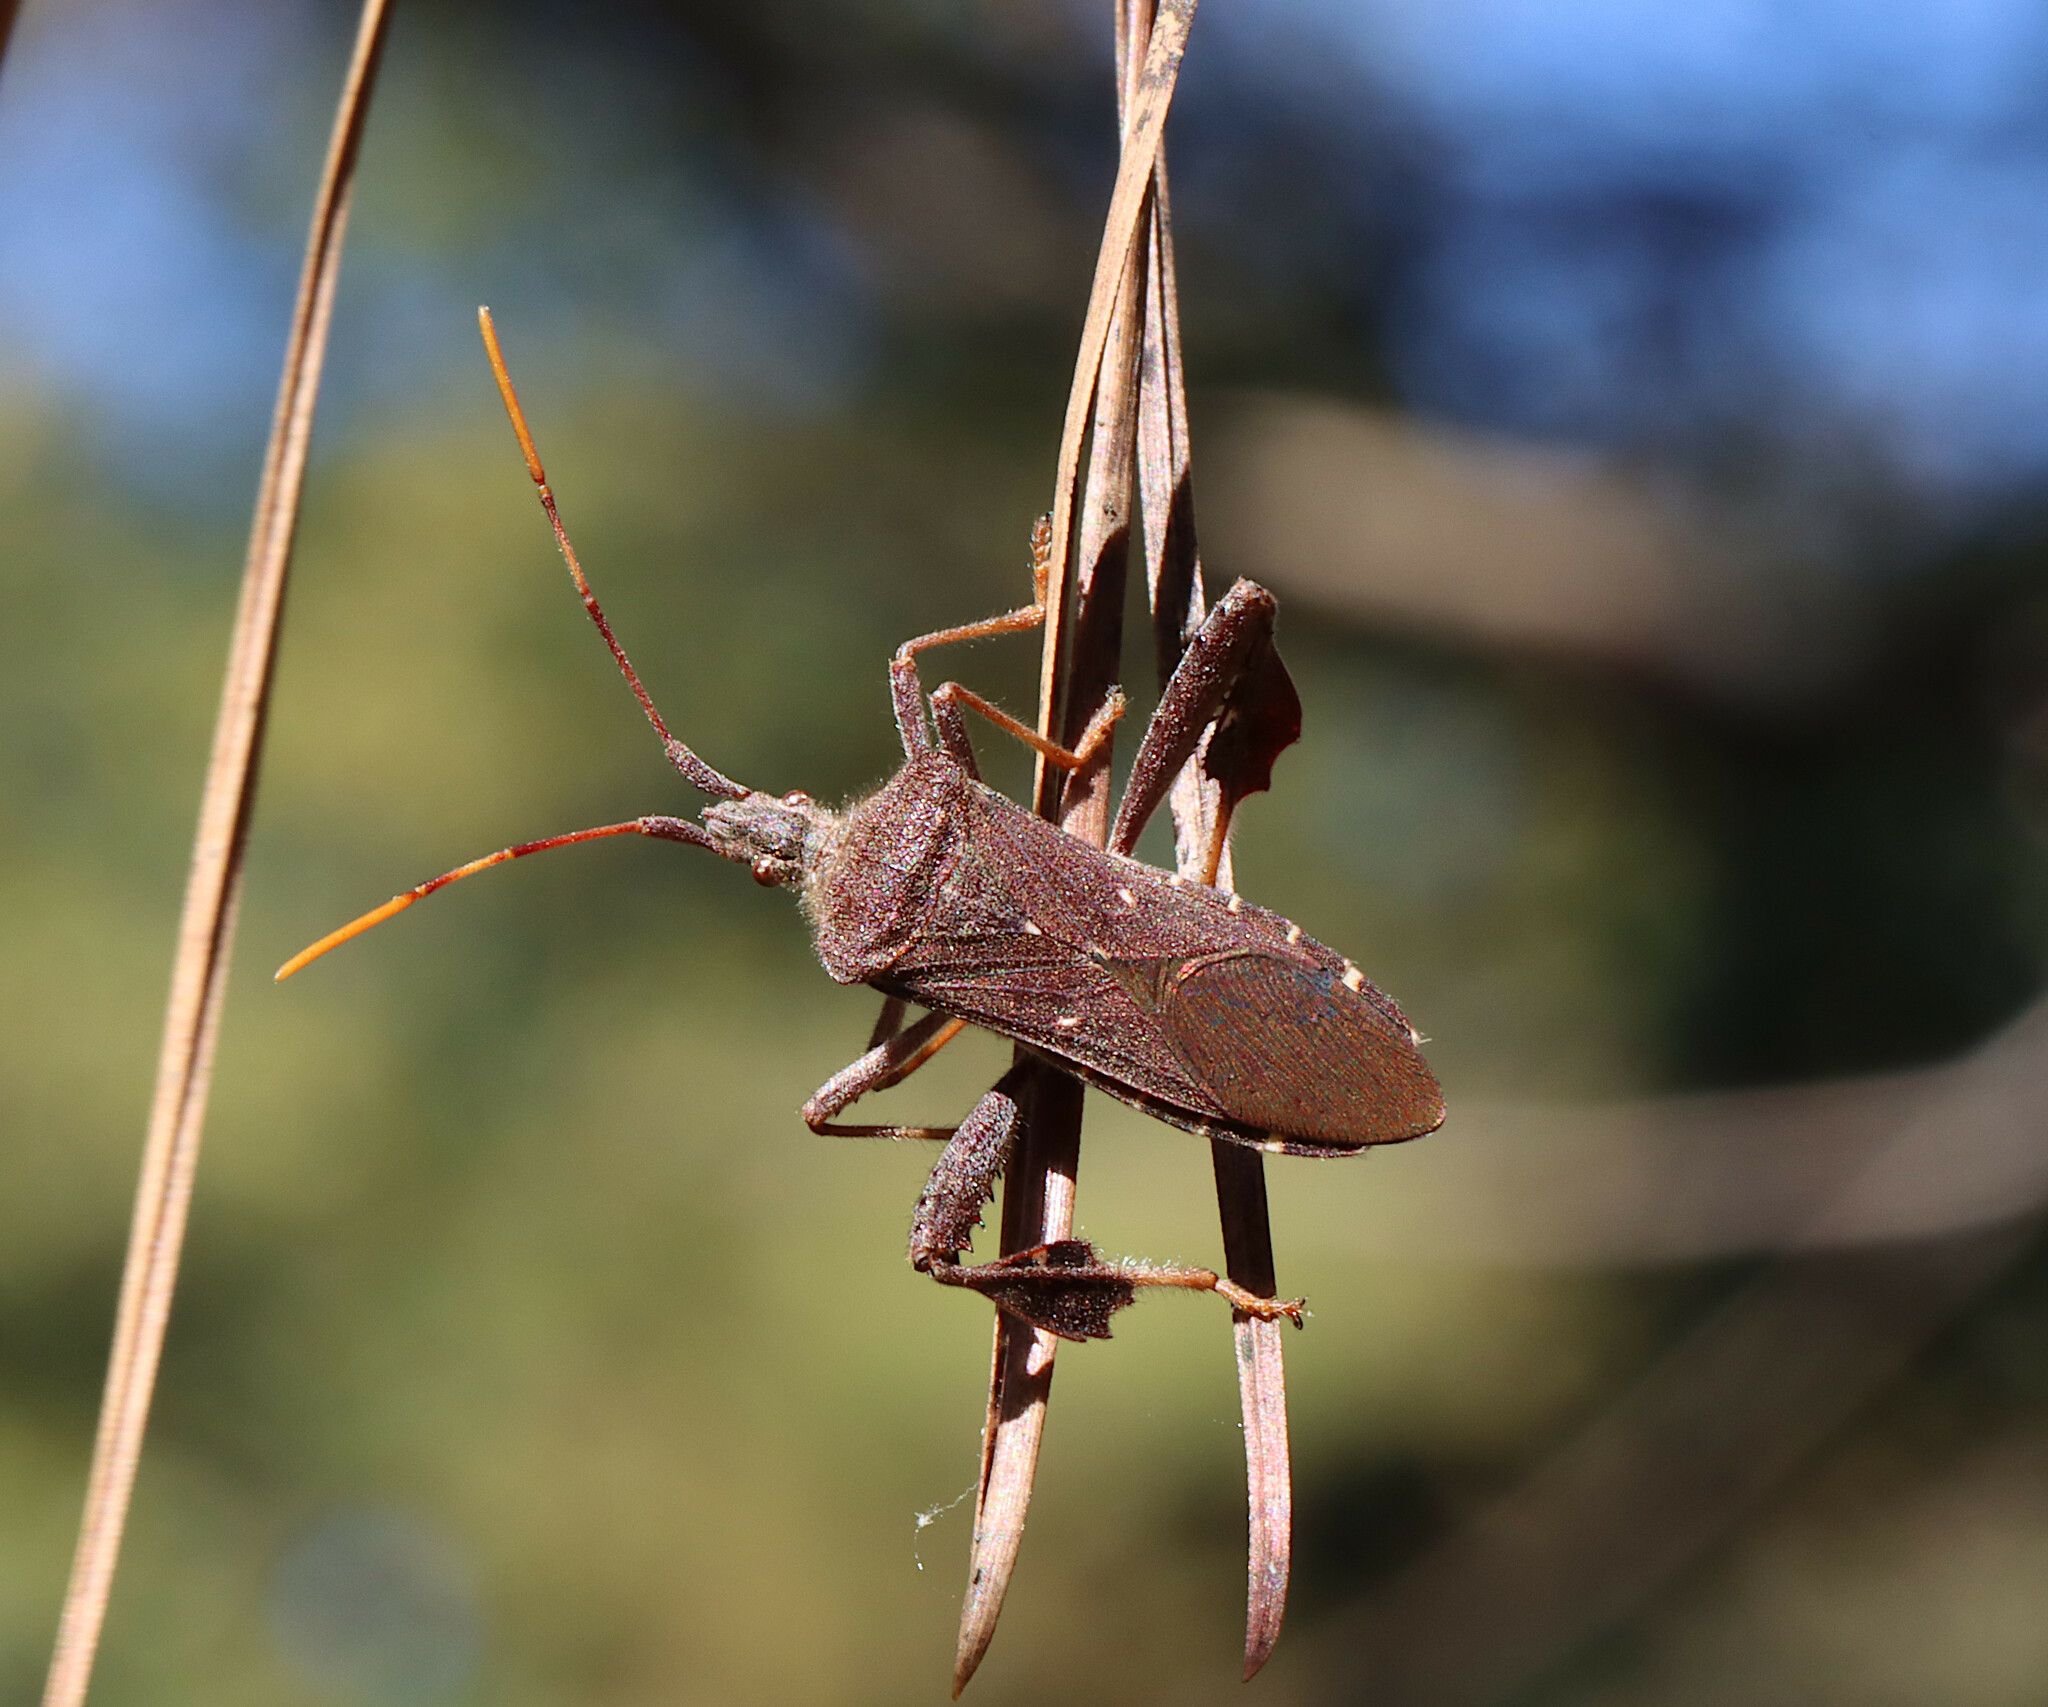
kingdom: Animalia
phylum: Arthropoda
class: Insecta
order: Hemiptera
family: Coreidae
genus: Leptoglossus
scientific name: Leptoglossus oppositus
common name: Northern leaf-footed bug
